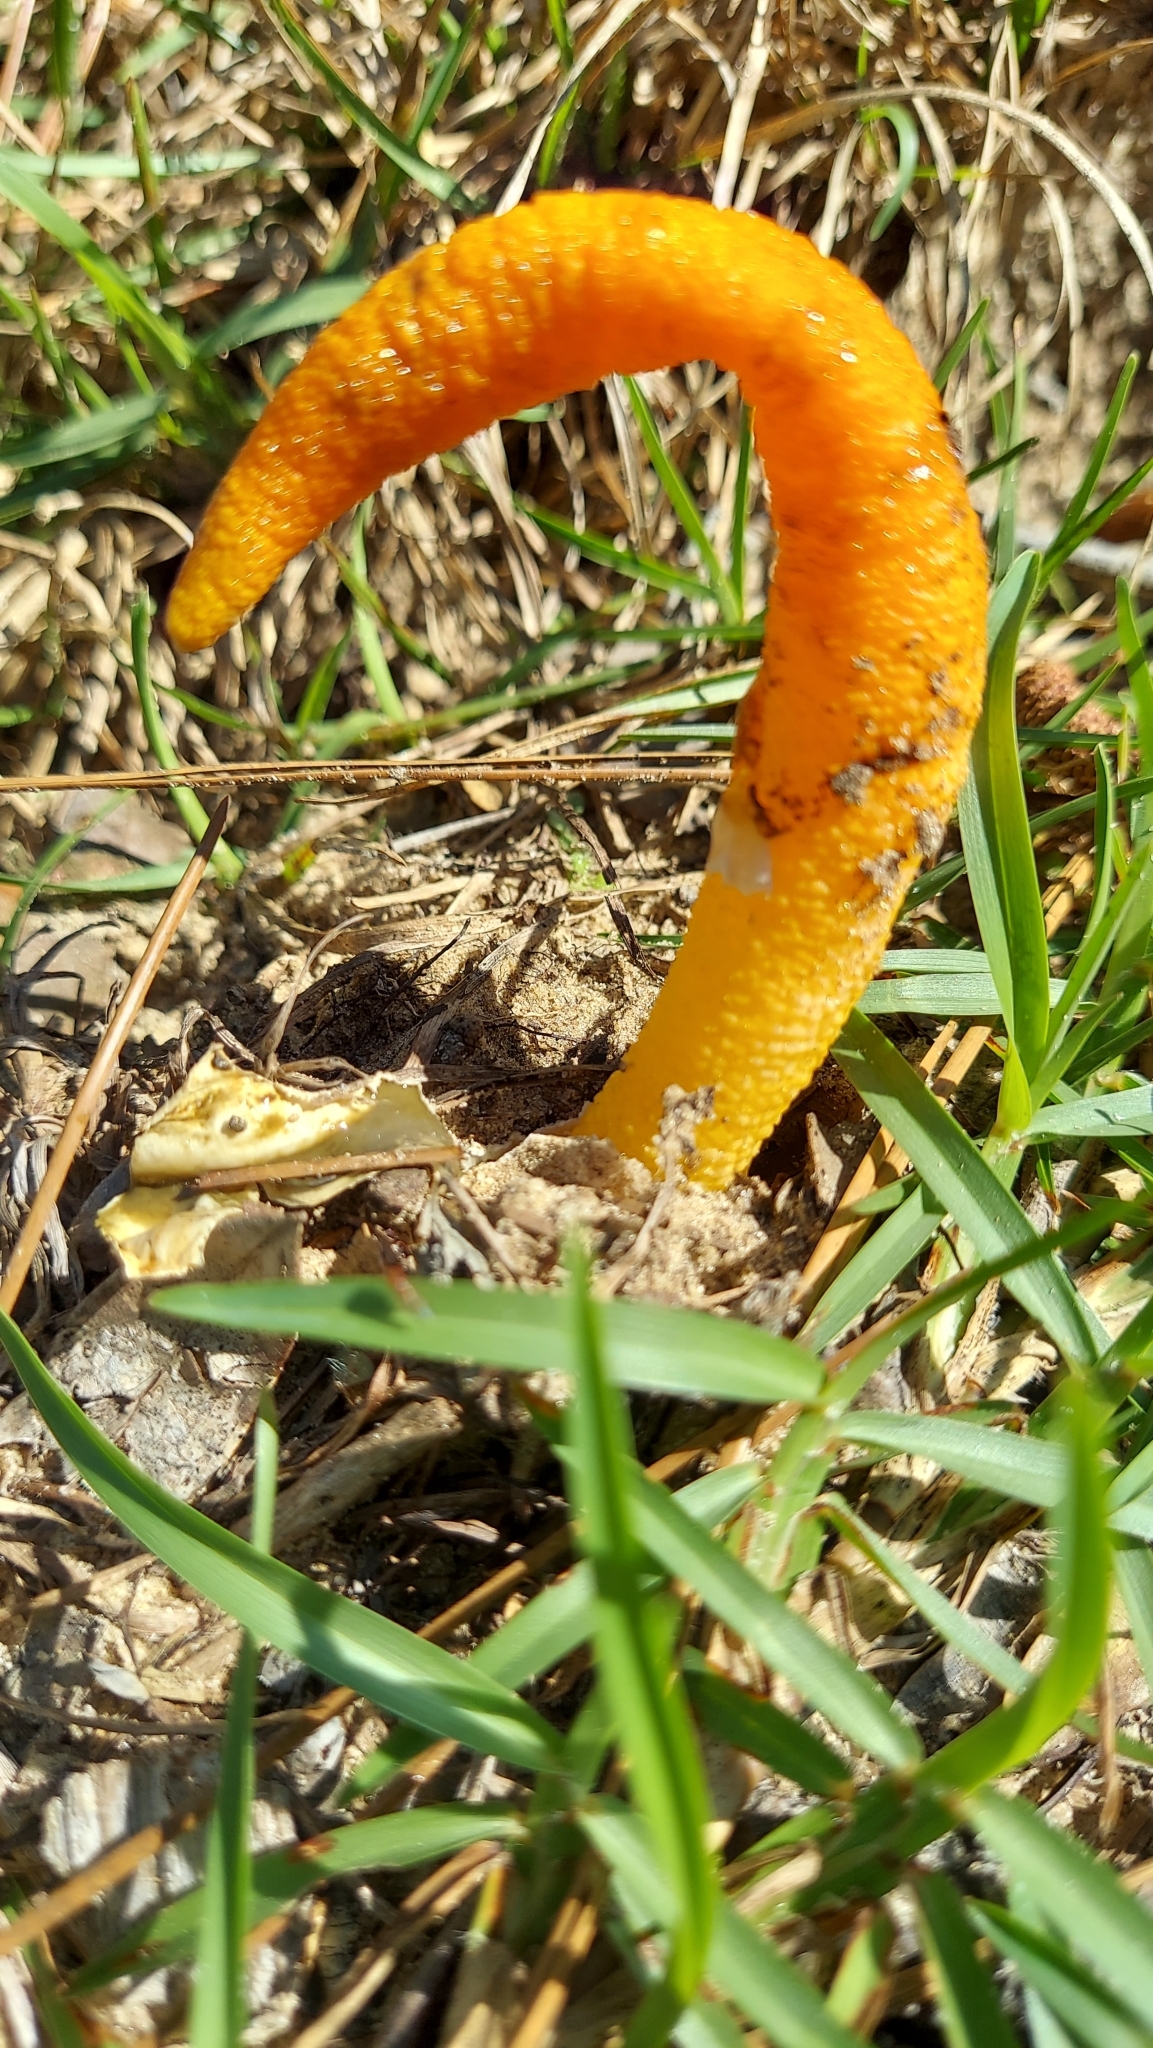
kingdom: Fungi
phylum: Basidiomycota
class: Agaricomycetes
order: Phallales
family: Phallaceae
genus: Mutinus
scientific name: Mutinus elegans
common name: Devil's dipstick
